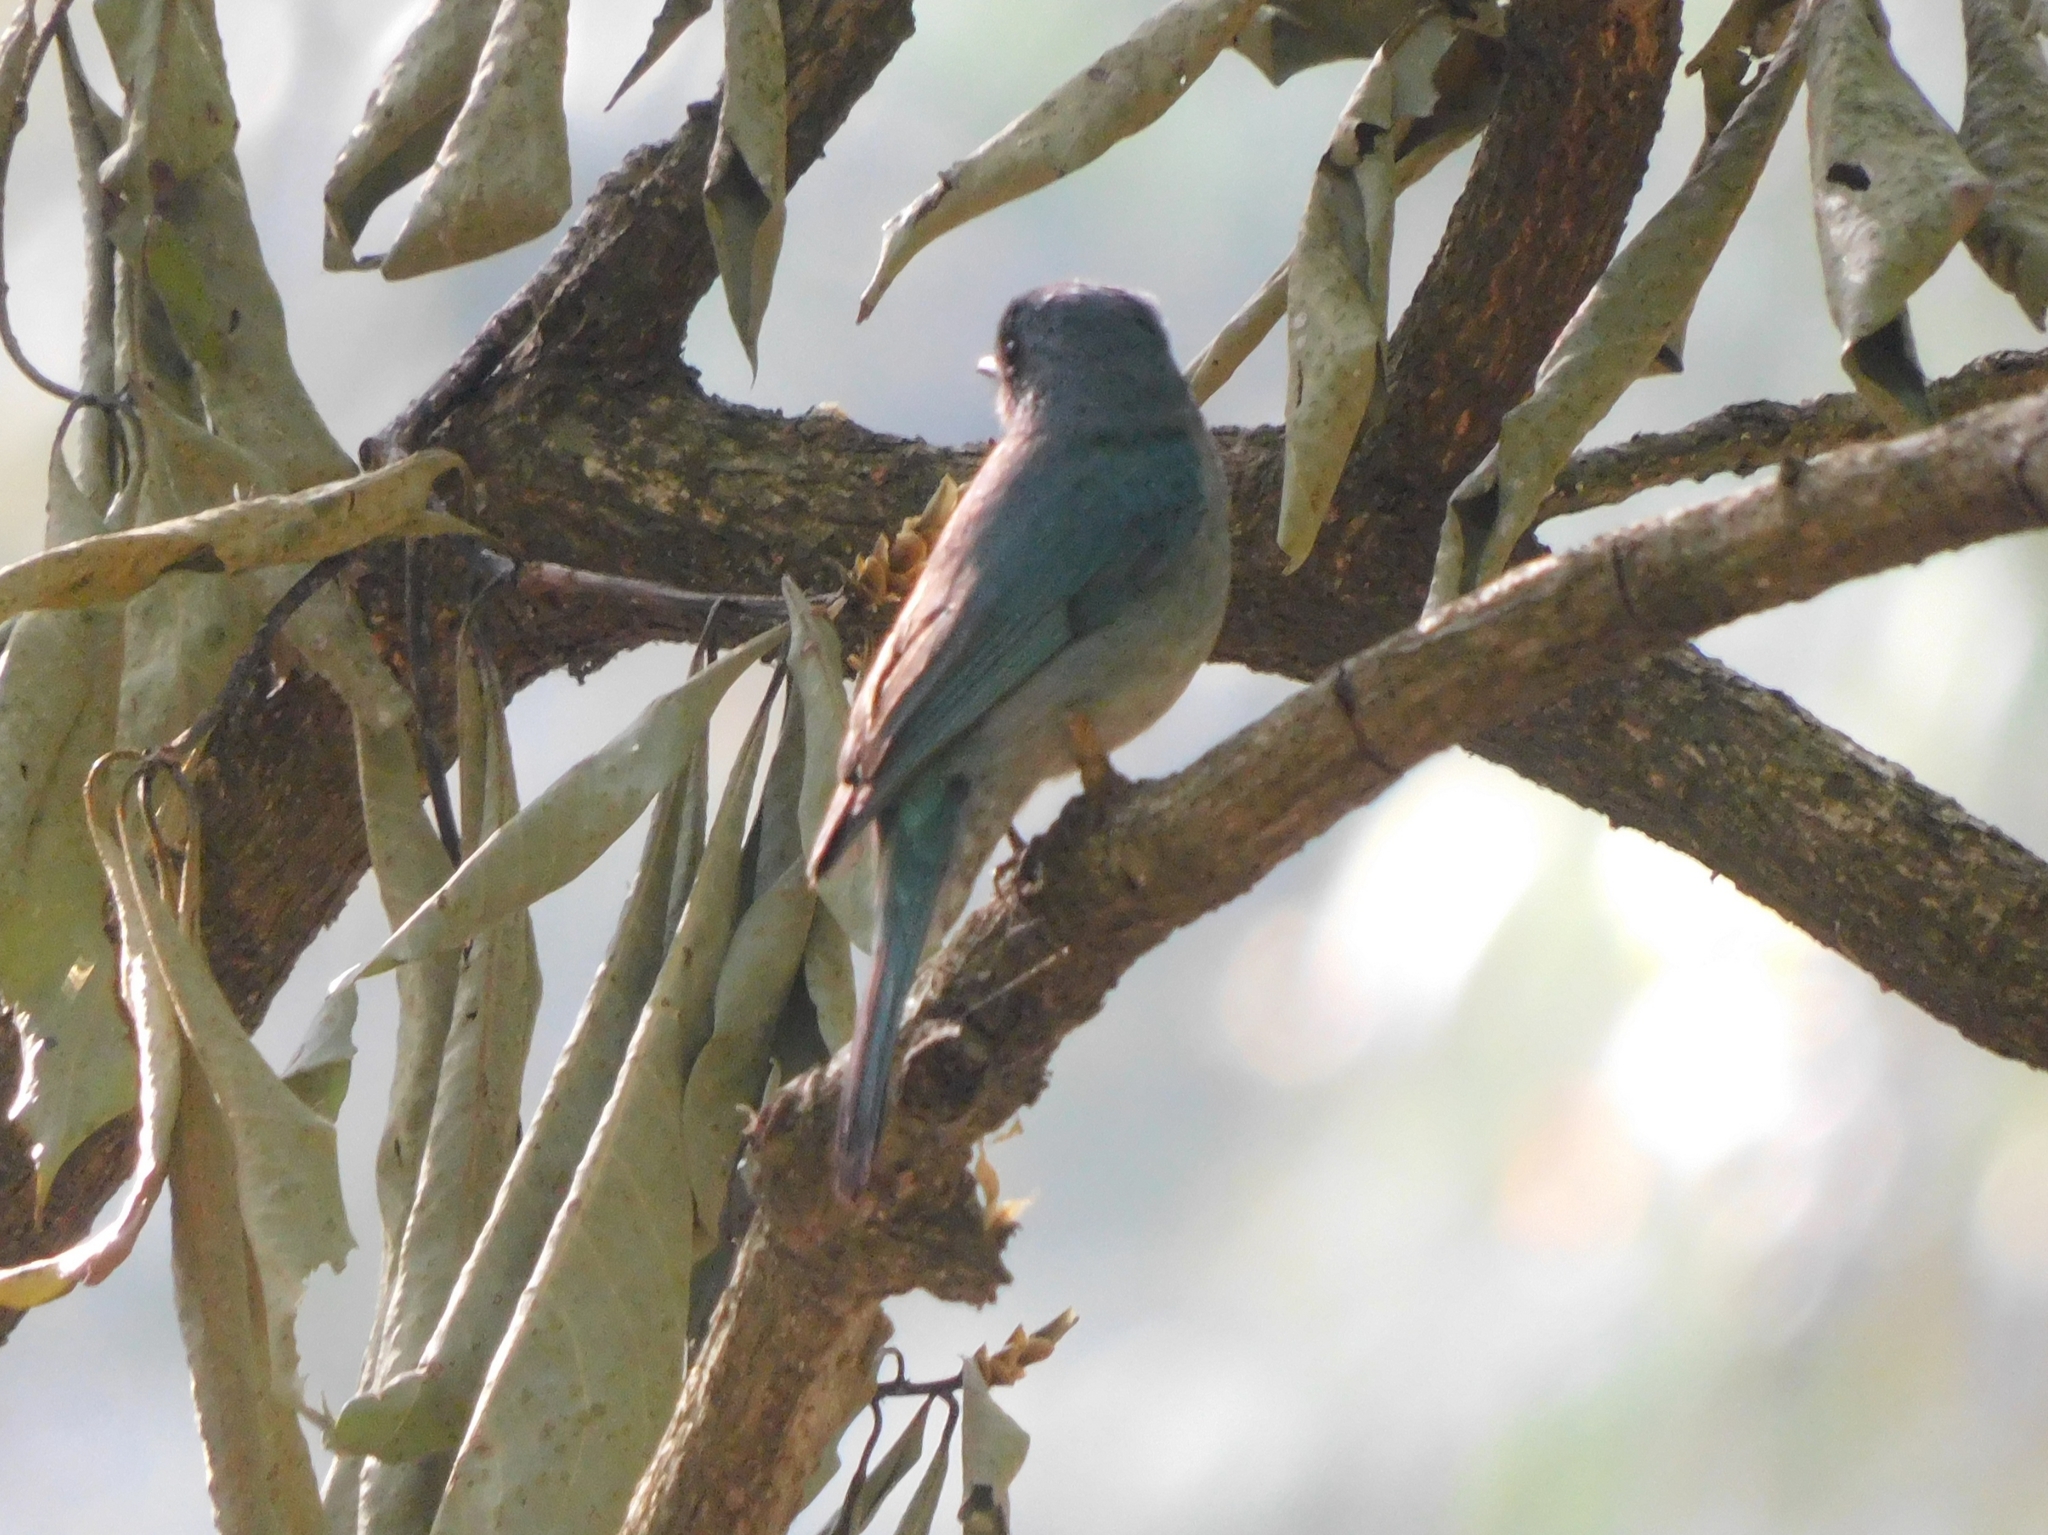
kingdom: Animalia
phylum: Chordata
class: Aves
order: Passeriformes
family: Muscicapidae
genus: Eumyias
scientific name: Eumyias thalassinus
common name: Verditer flycatcher
